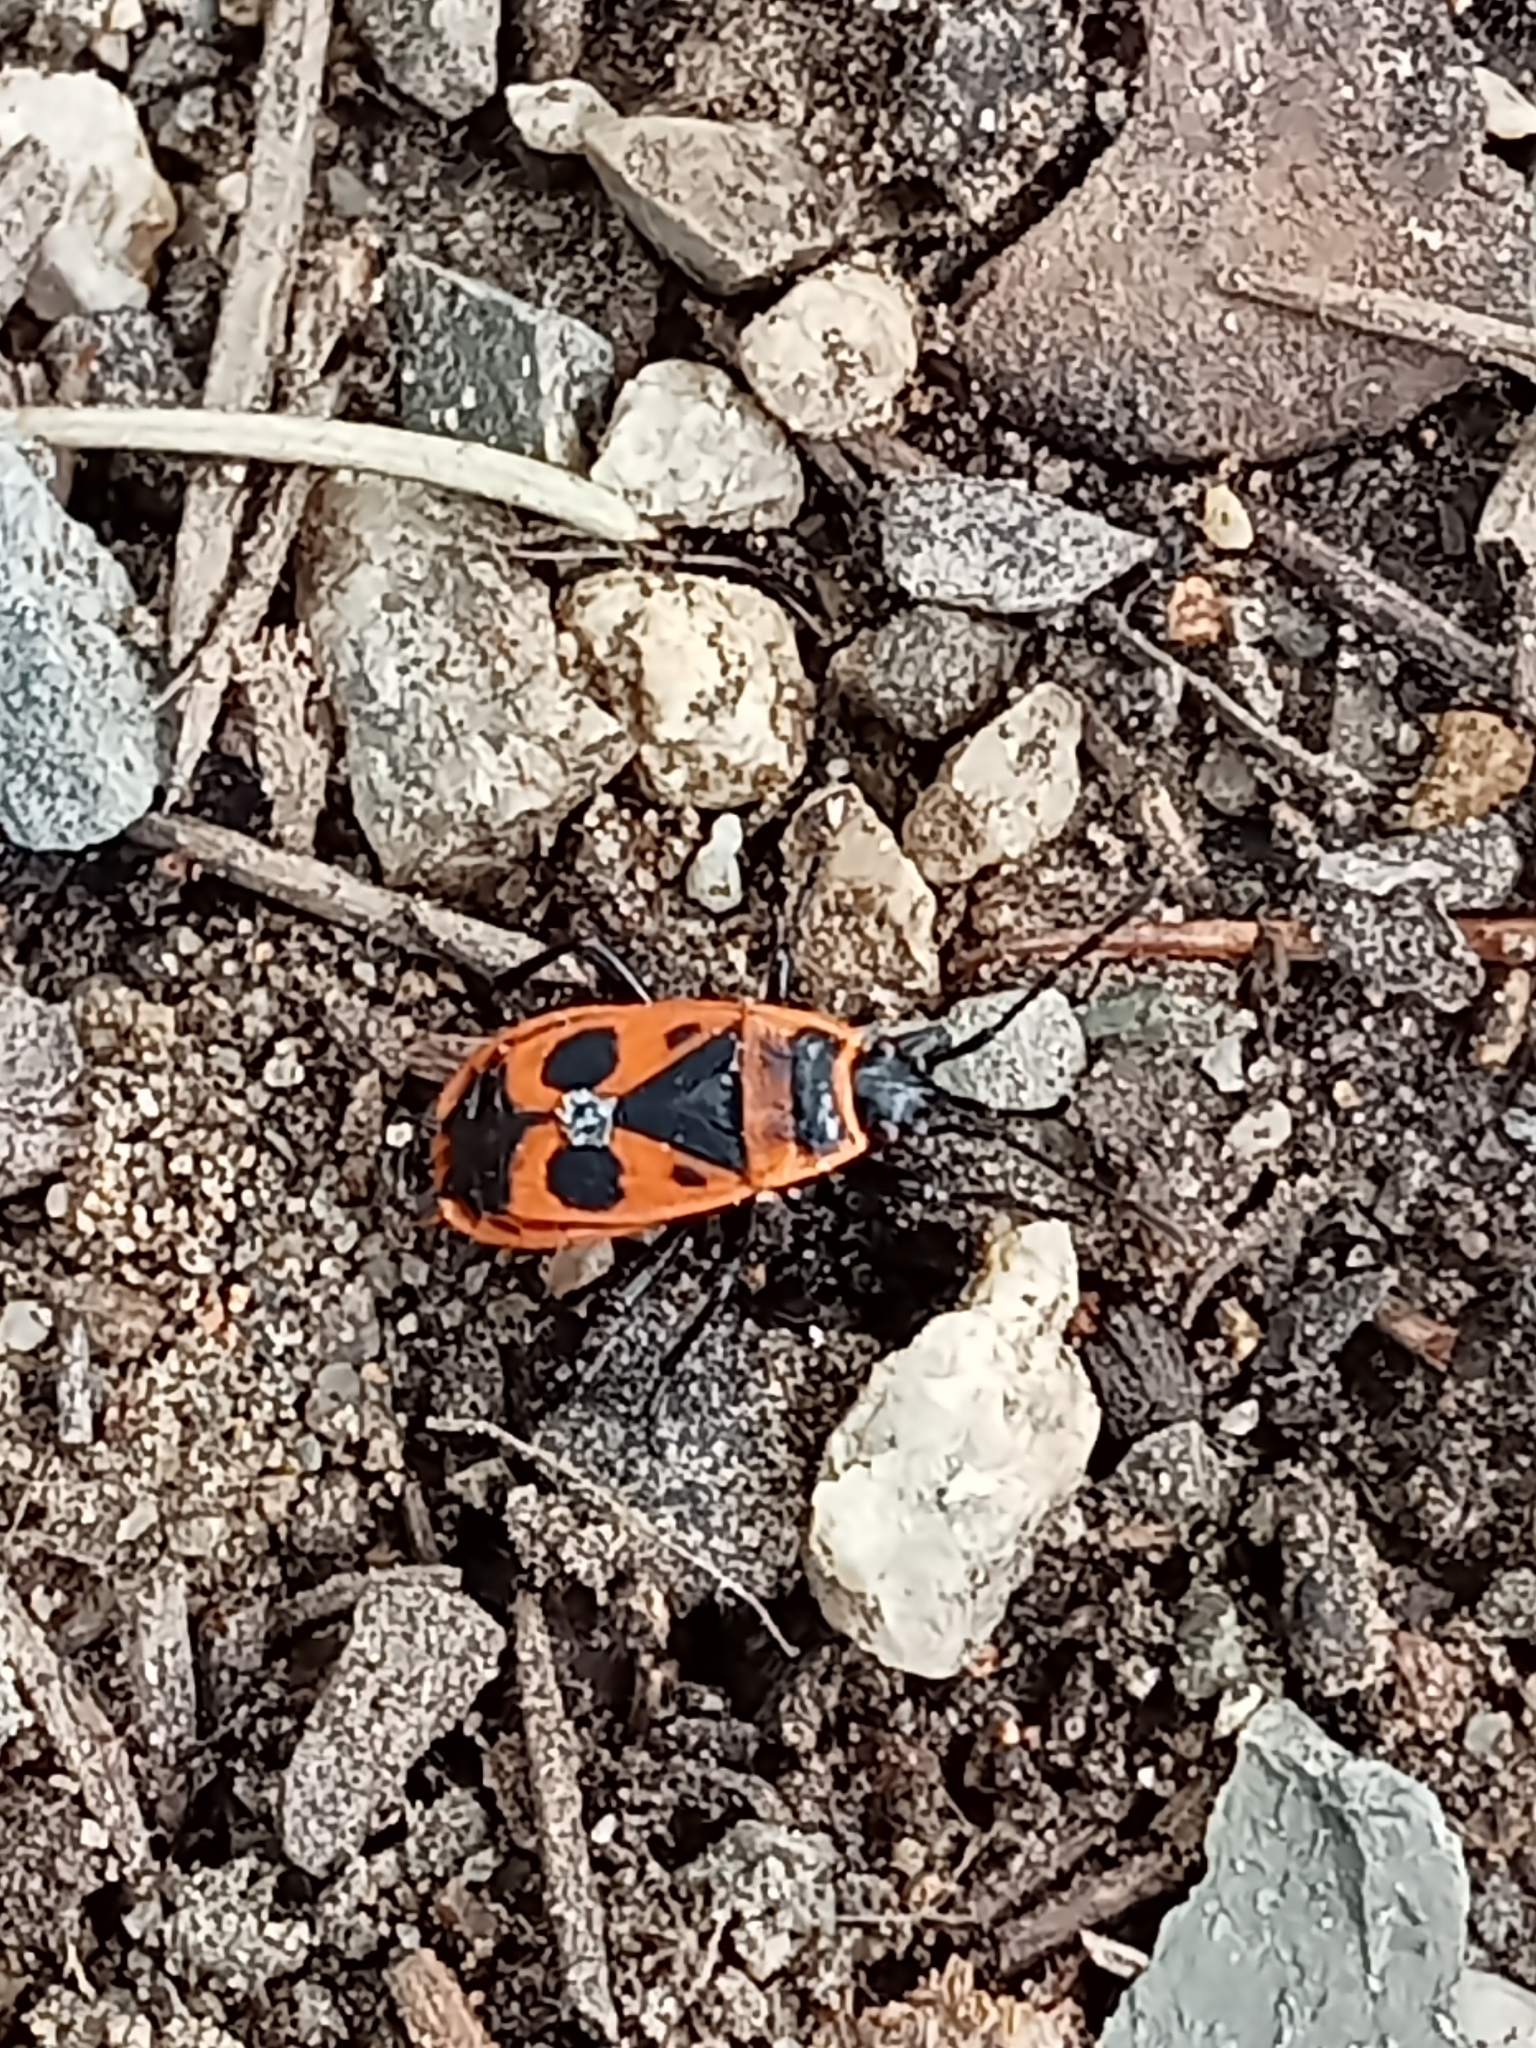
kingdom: Animalia
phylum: Arthropoda
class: Insecta
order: Hemiptera
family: Pyrrhocoridae
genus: Pyrrhocoris
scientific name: Pyrrhocoris apterus
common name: Firebug
